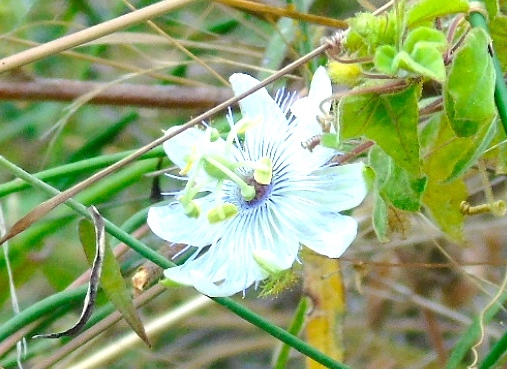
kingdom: Plantae
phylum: Tracheophyta
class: Magnoliopsida
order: Malpighiales
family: Passifloraceae
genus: Passiflora
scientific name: Passiflora foetida
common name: Fetid passionflower
